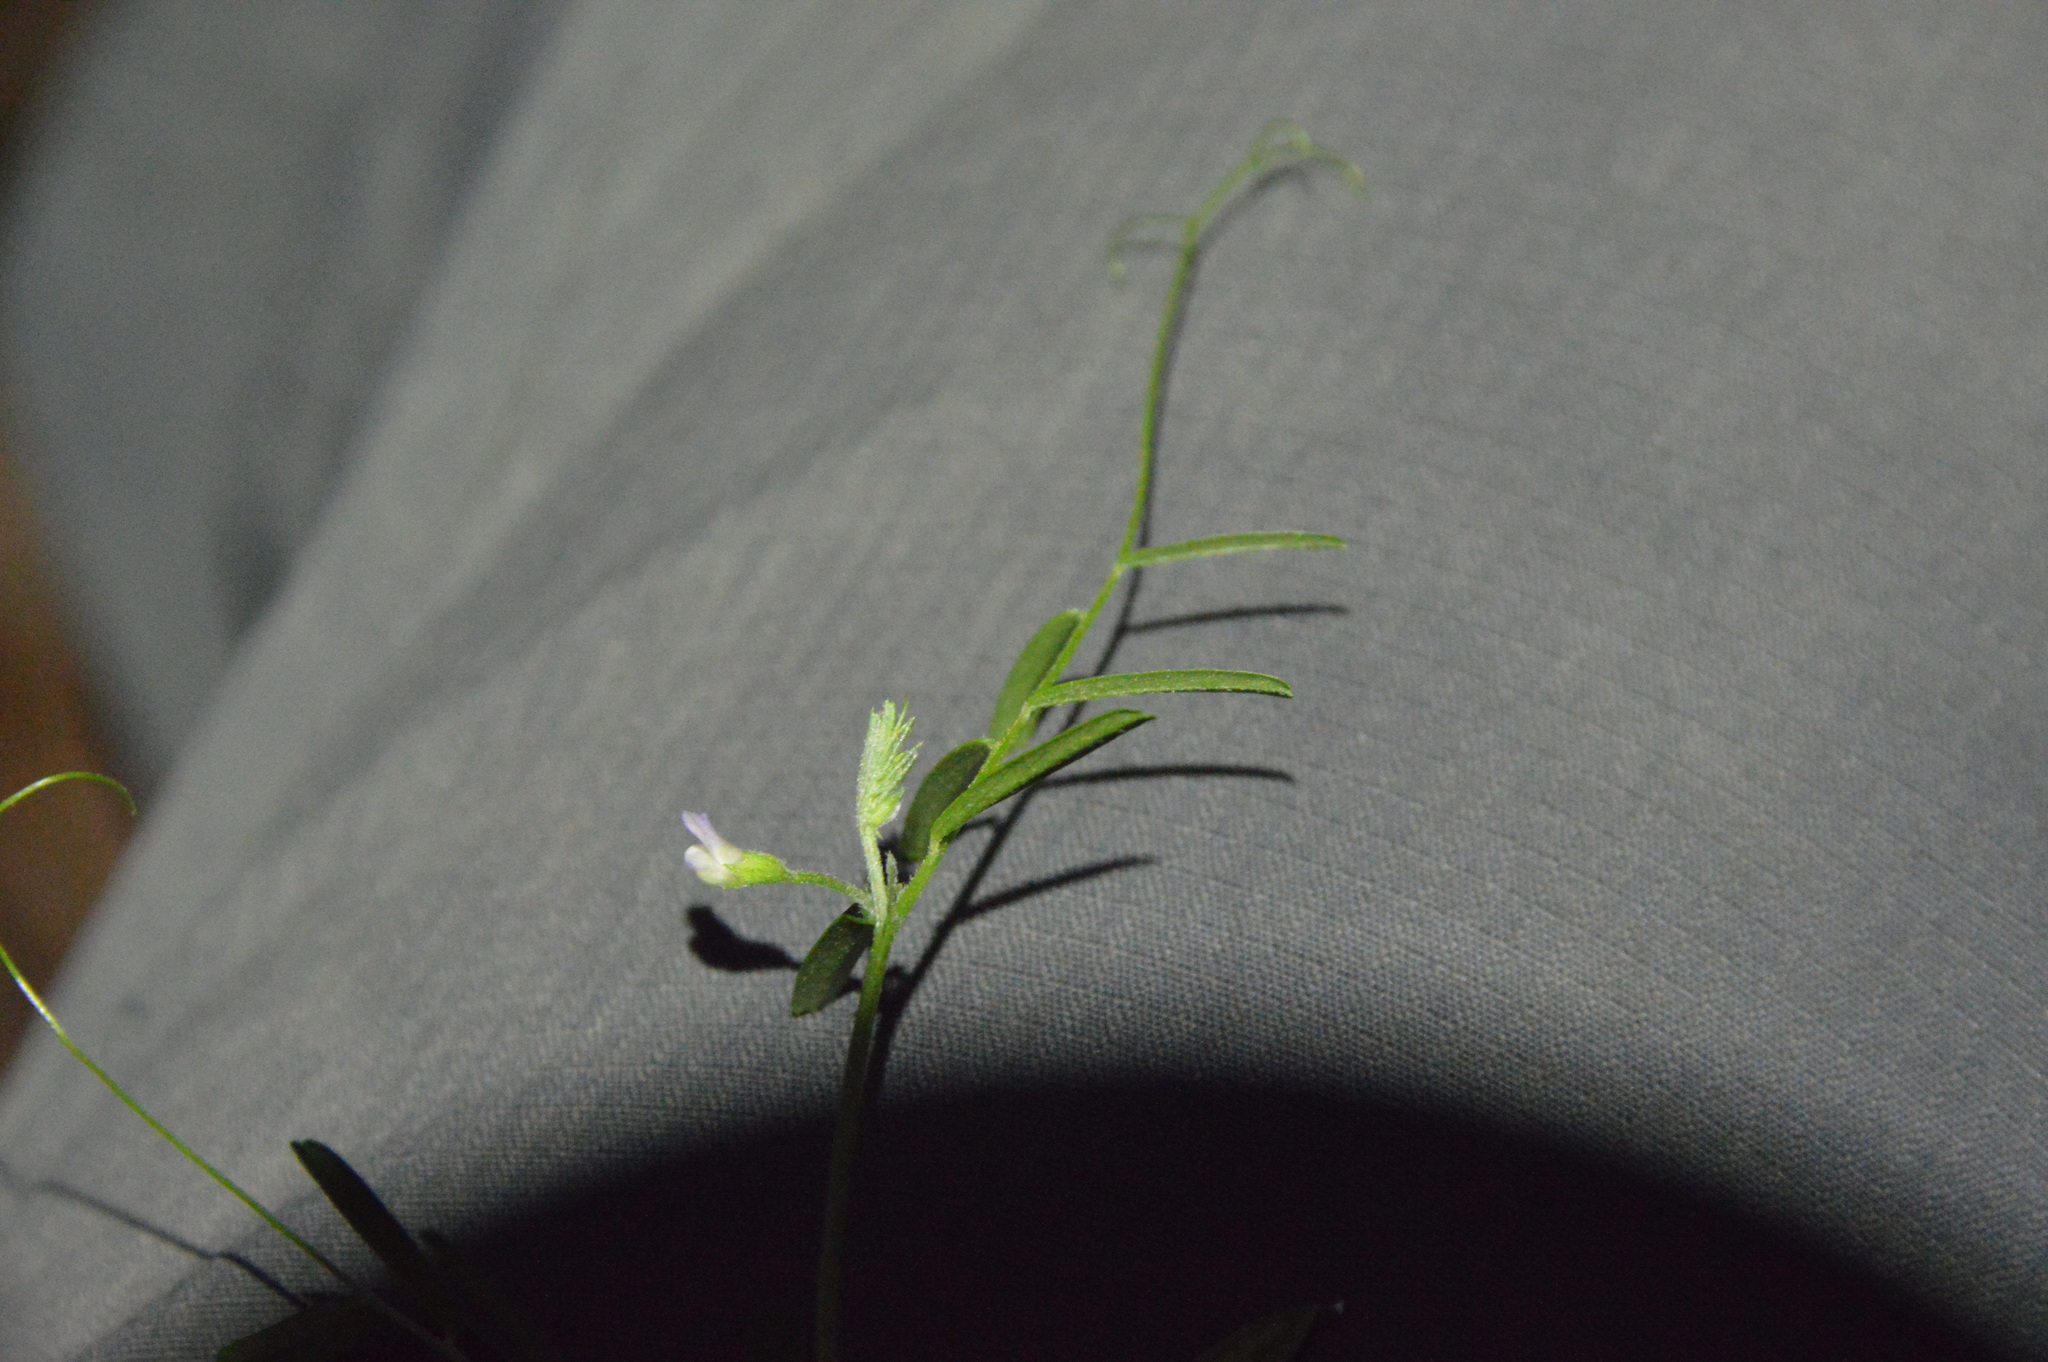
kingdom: Plantae
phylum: Tracheophyta
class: Magnoliopsida
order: Fabales
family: Fabaceae
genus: Vicia
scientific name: Vicia minutiflora
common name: Pygmy-flower vetch
